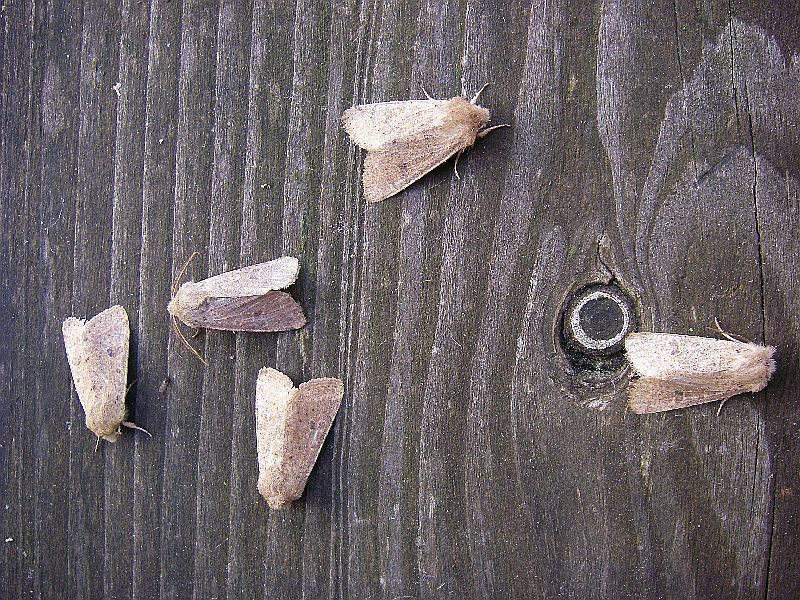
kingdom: Animalia
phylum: Arthropoda
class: Insecta
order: Lepidoptera
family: Noctuidae
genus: Orthosia
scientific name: Orthosia cruda
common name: Small quaker
